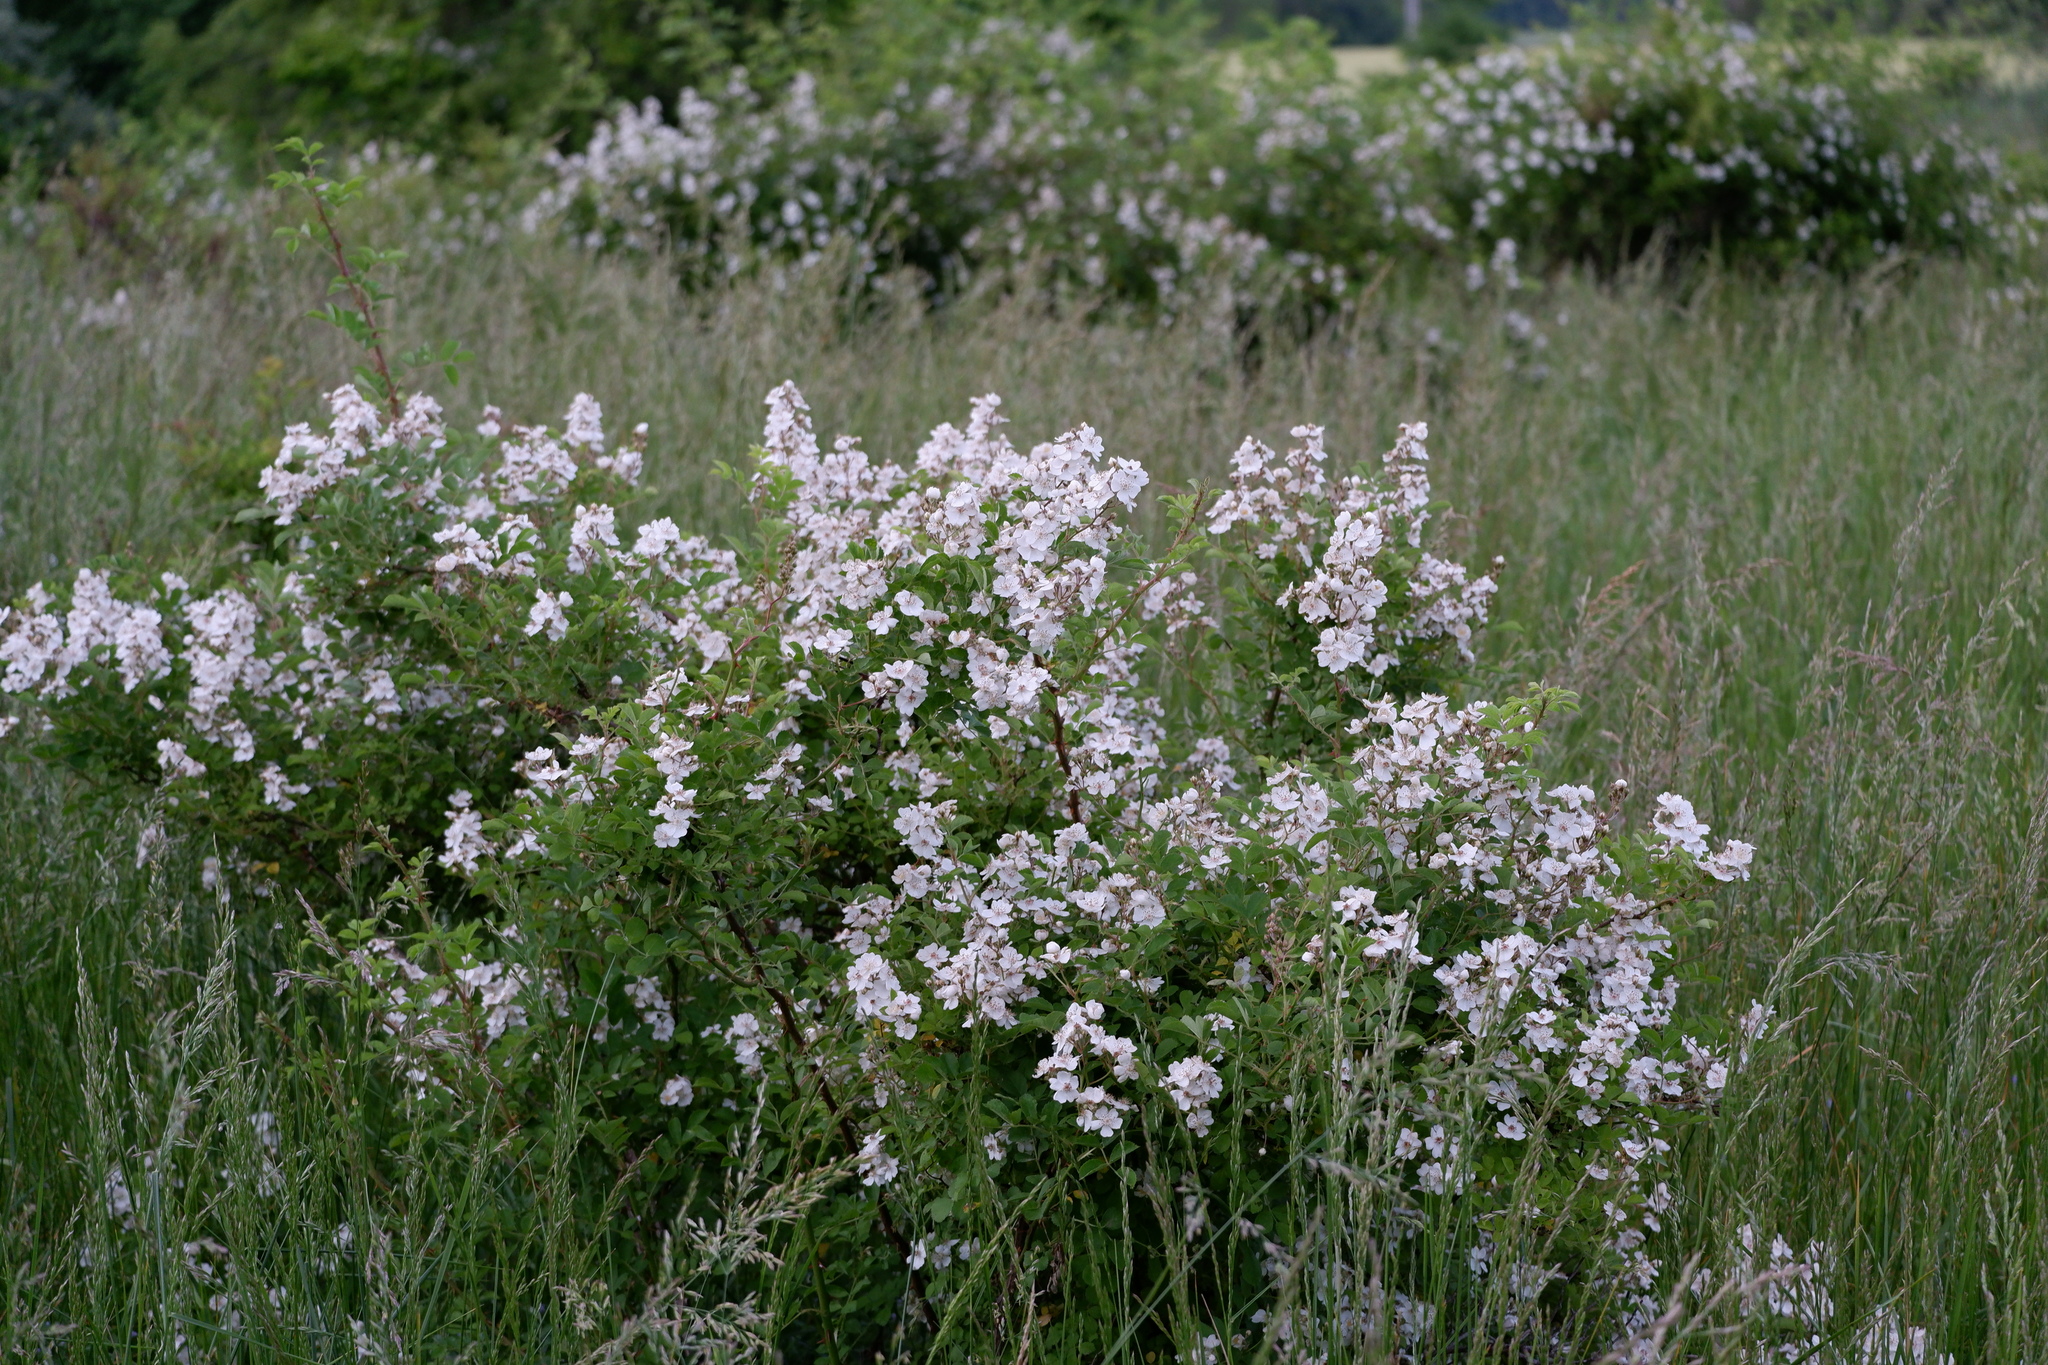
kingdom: Plantae
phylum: Tracheophyta
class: Magnoliopsida
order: Rosales
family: Rosaceae
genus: Rosa
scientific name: Rosa multiflora
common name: Multiflora rose
